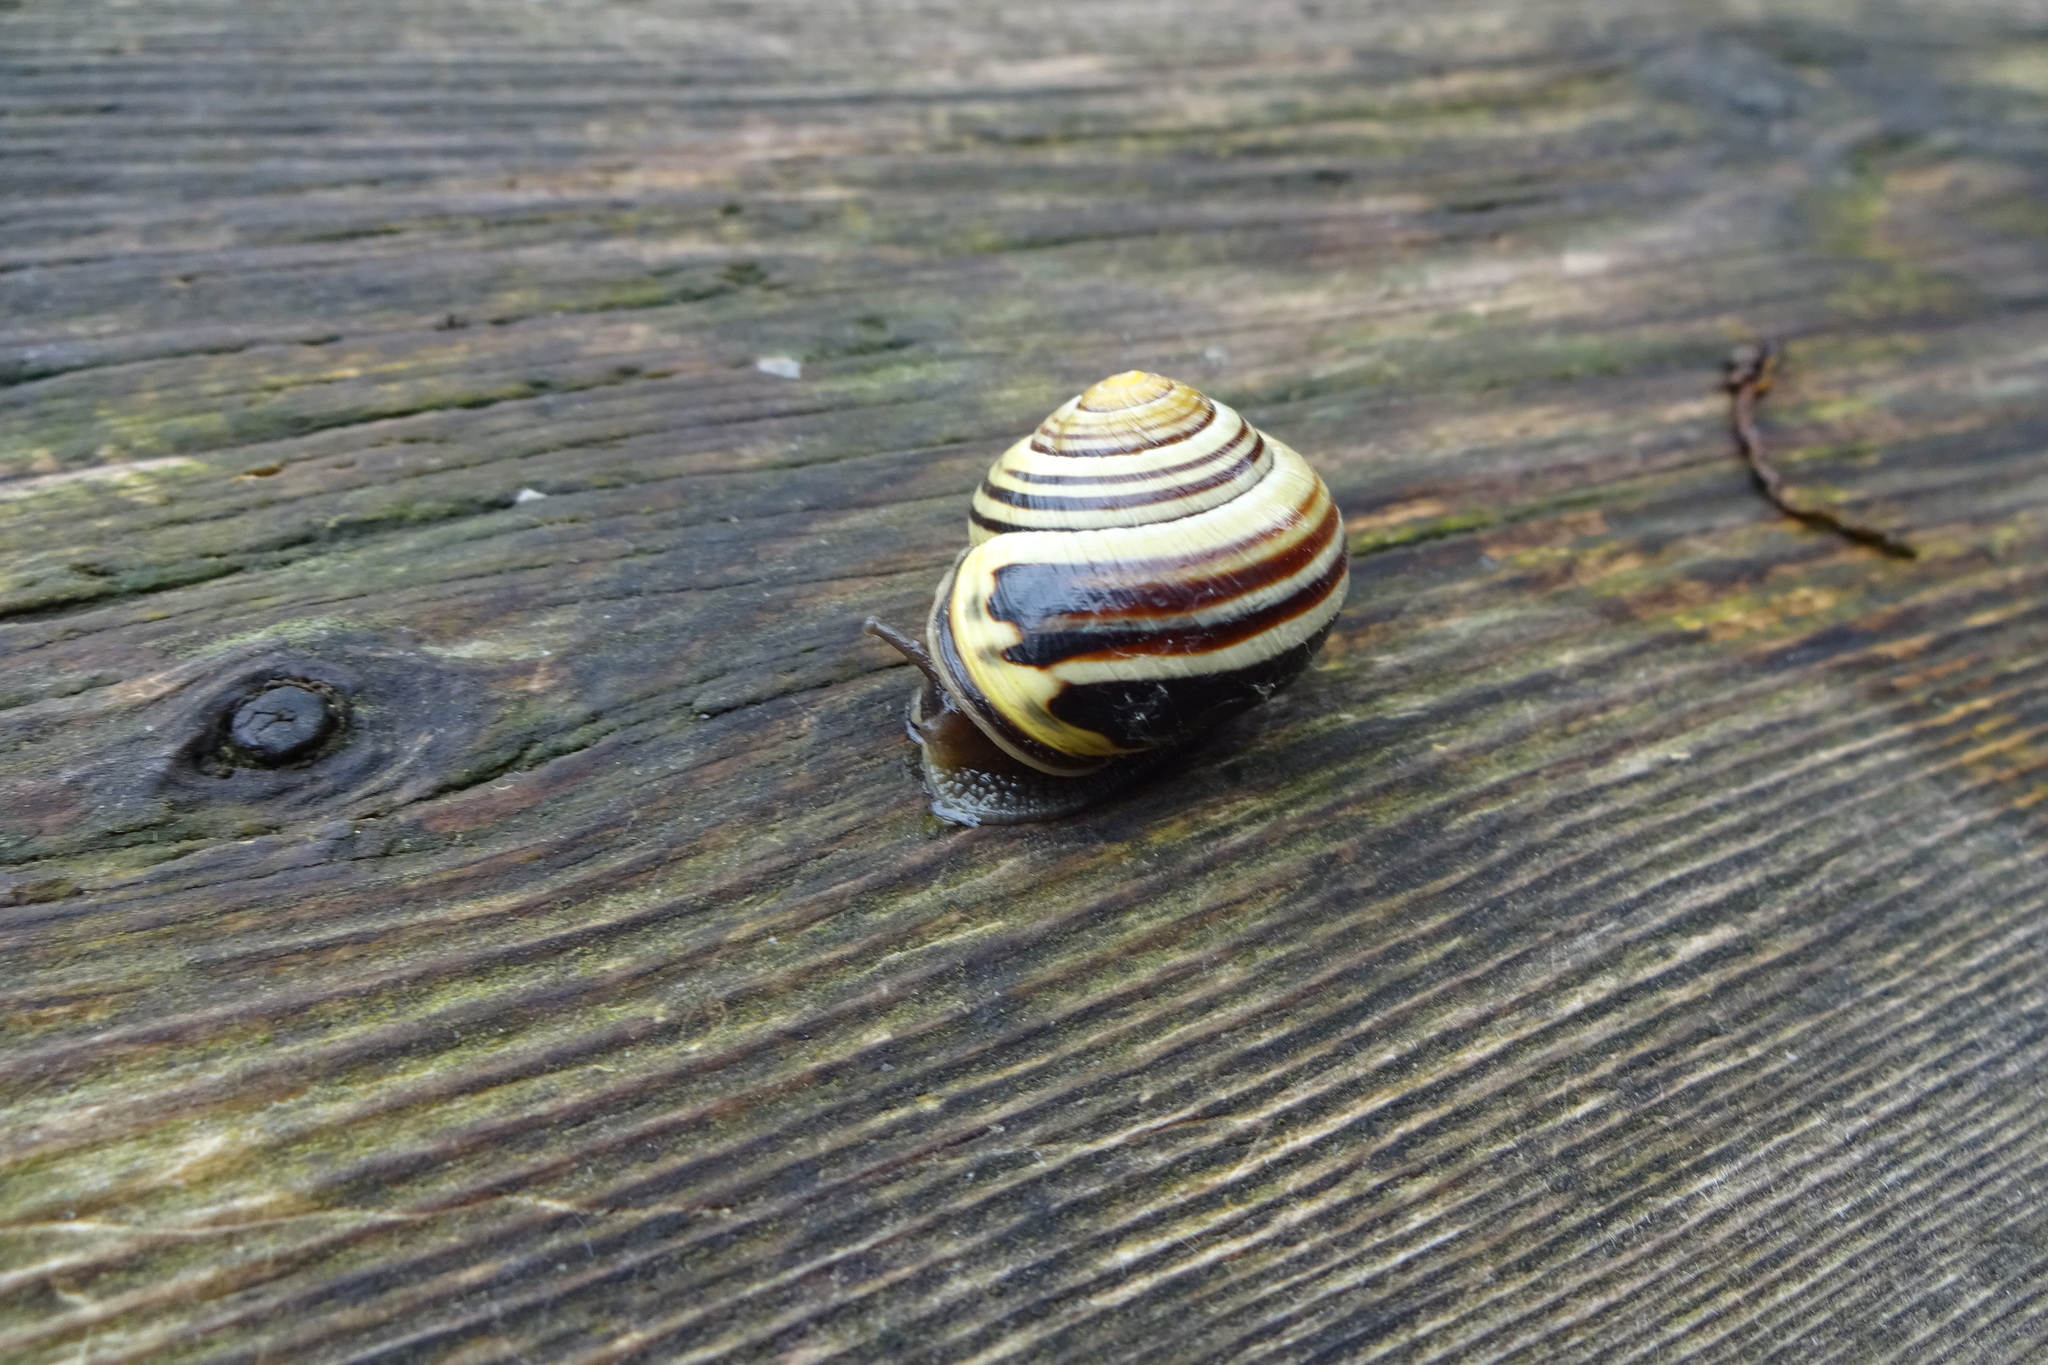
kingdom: Animalia
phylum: Mollusca
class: Gastropoda
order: Stylommatophora
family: Helicidae
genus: Cepaea
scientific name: Cepaea nemoralis
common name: Grovesnail
